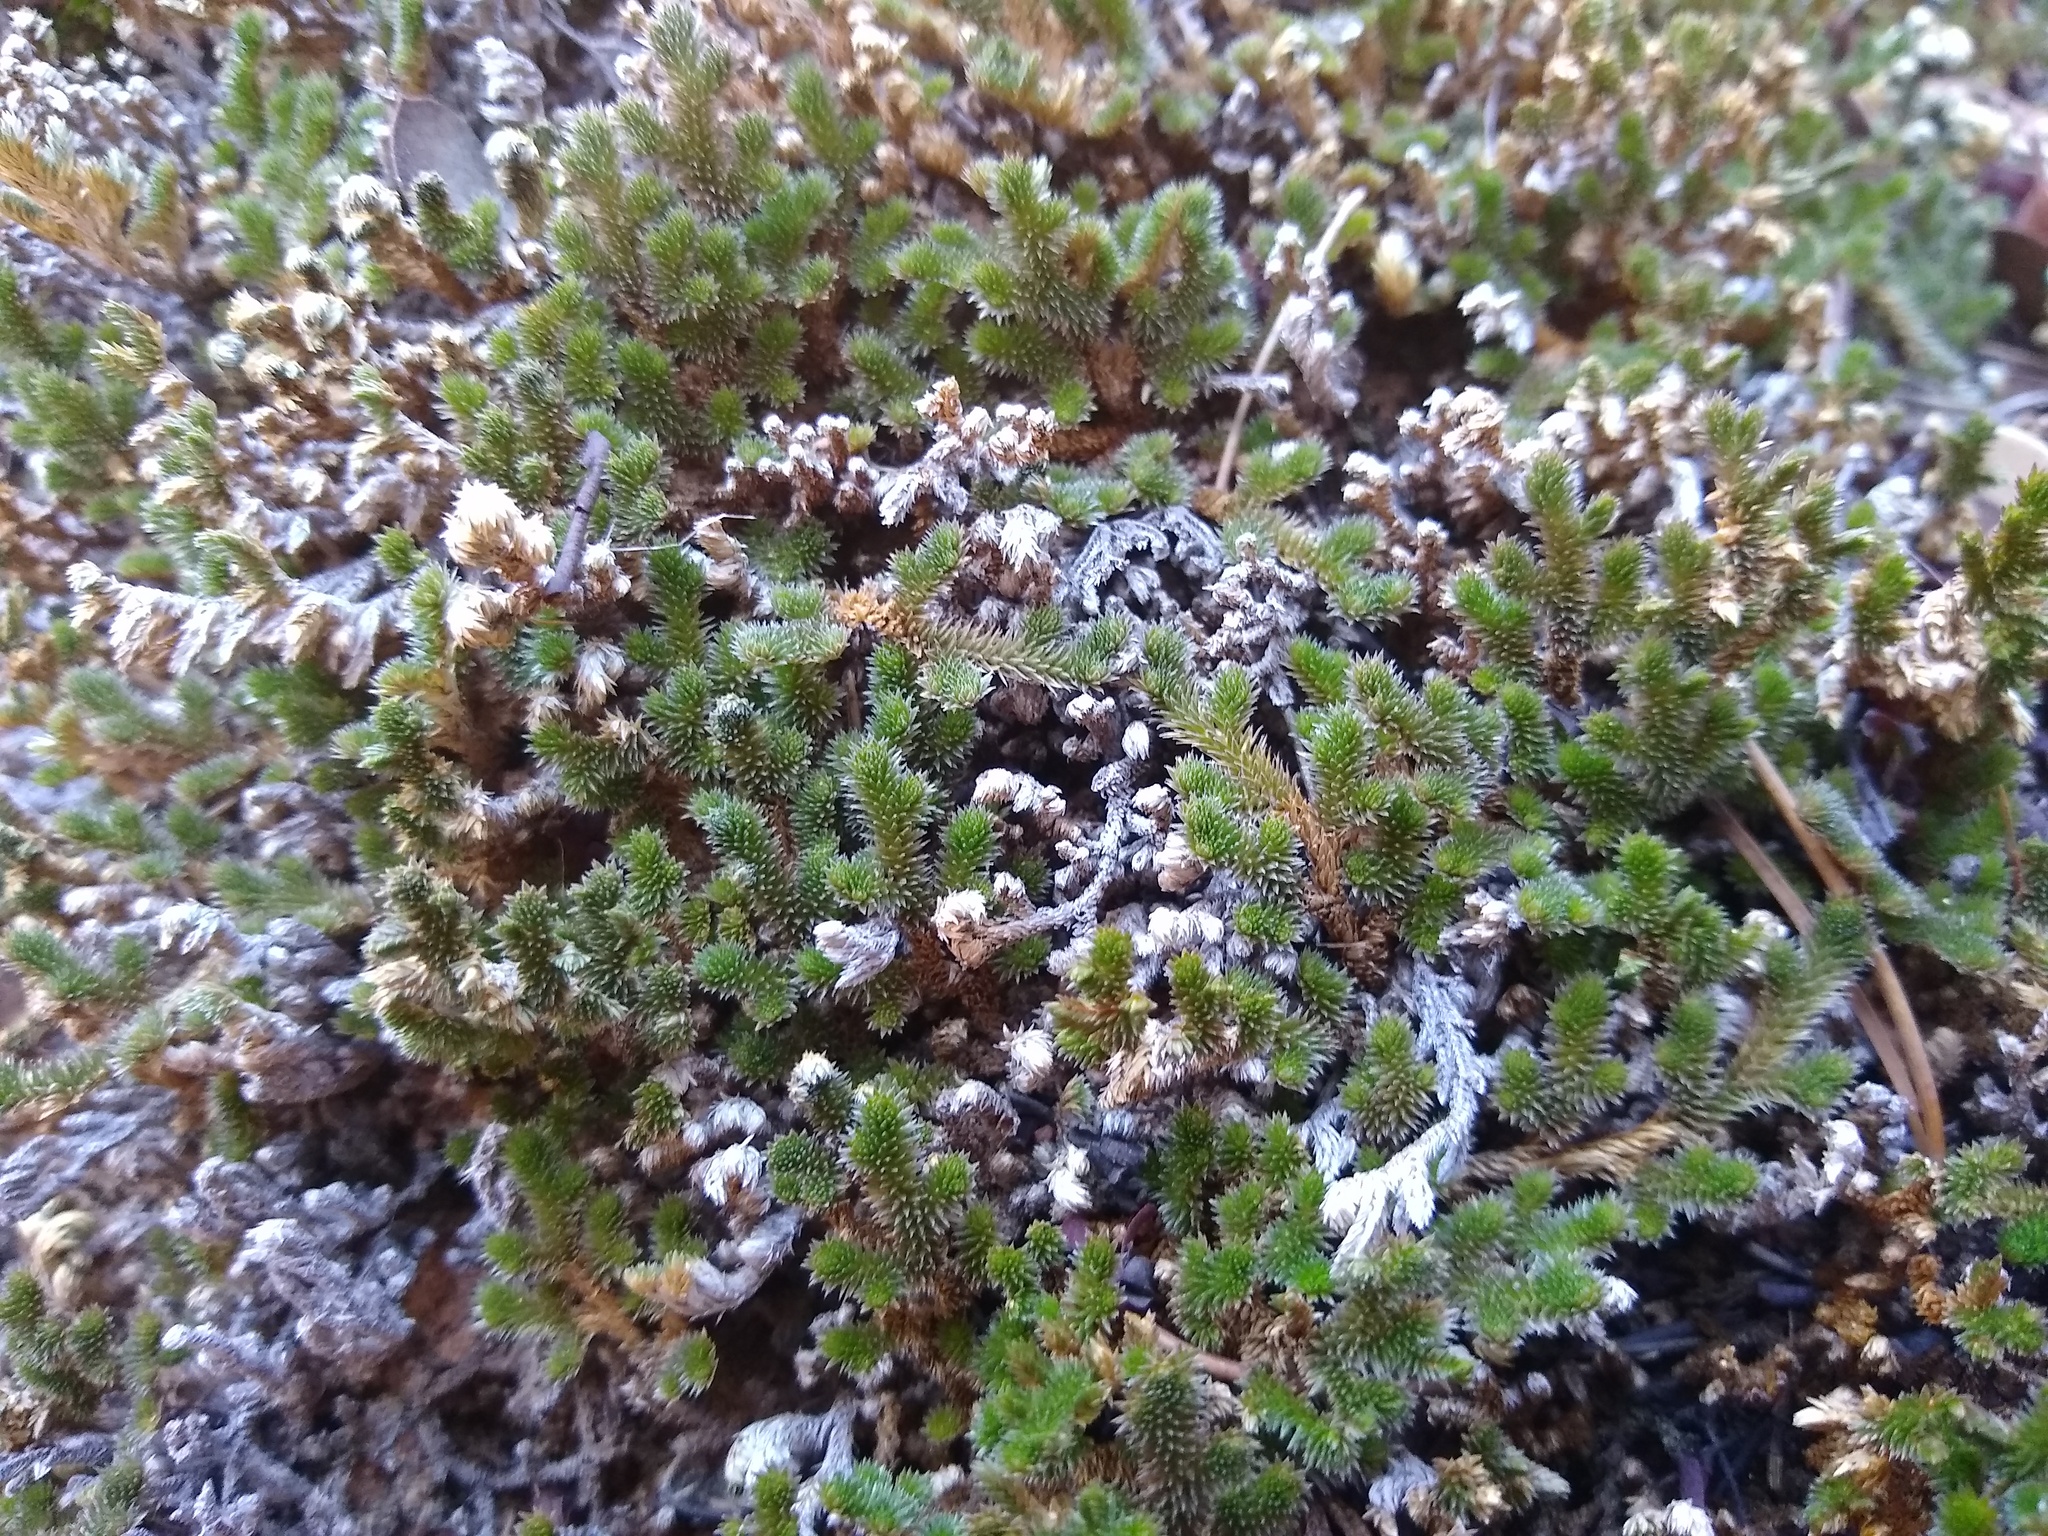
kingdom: Plantae
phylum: Tracheophyta
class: Lycopodiopsida
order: Selaginellales
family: Selaginellaceae
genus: Selaginella
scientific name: Selaginella arizonica
